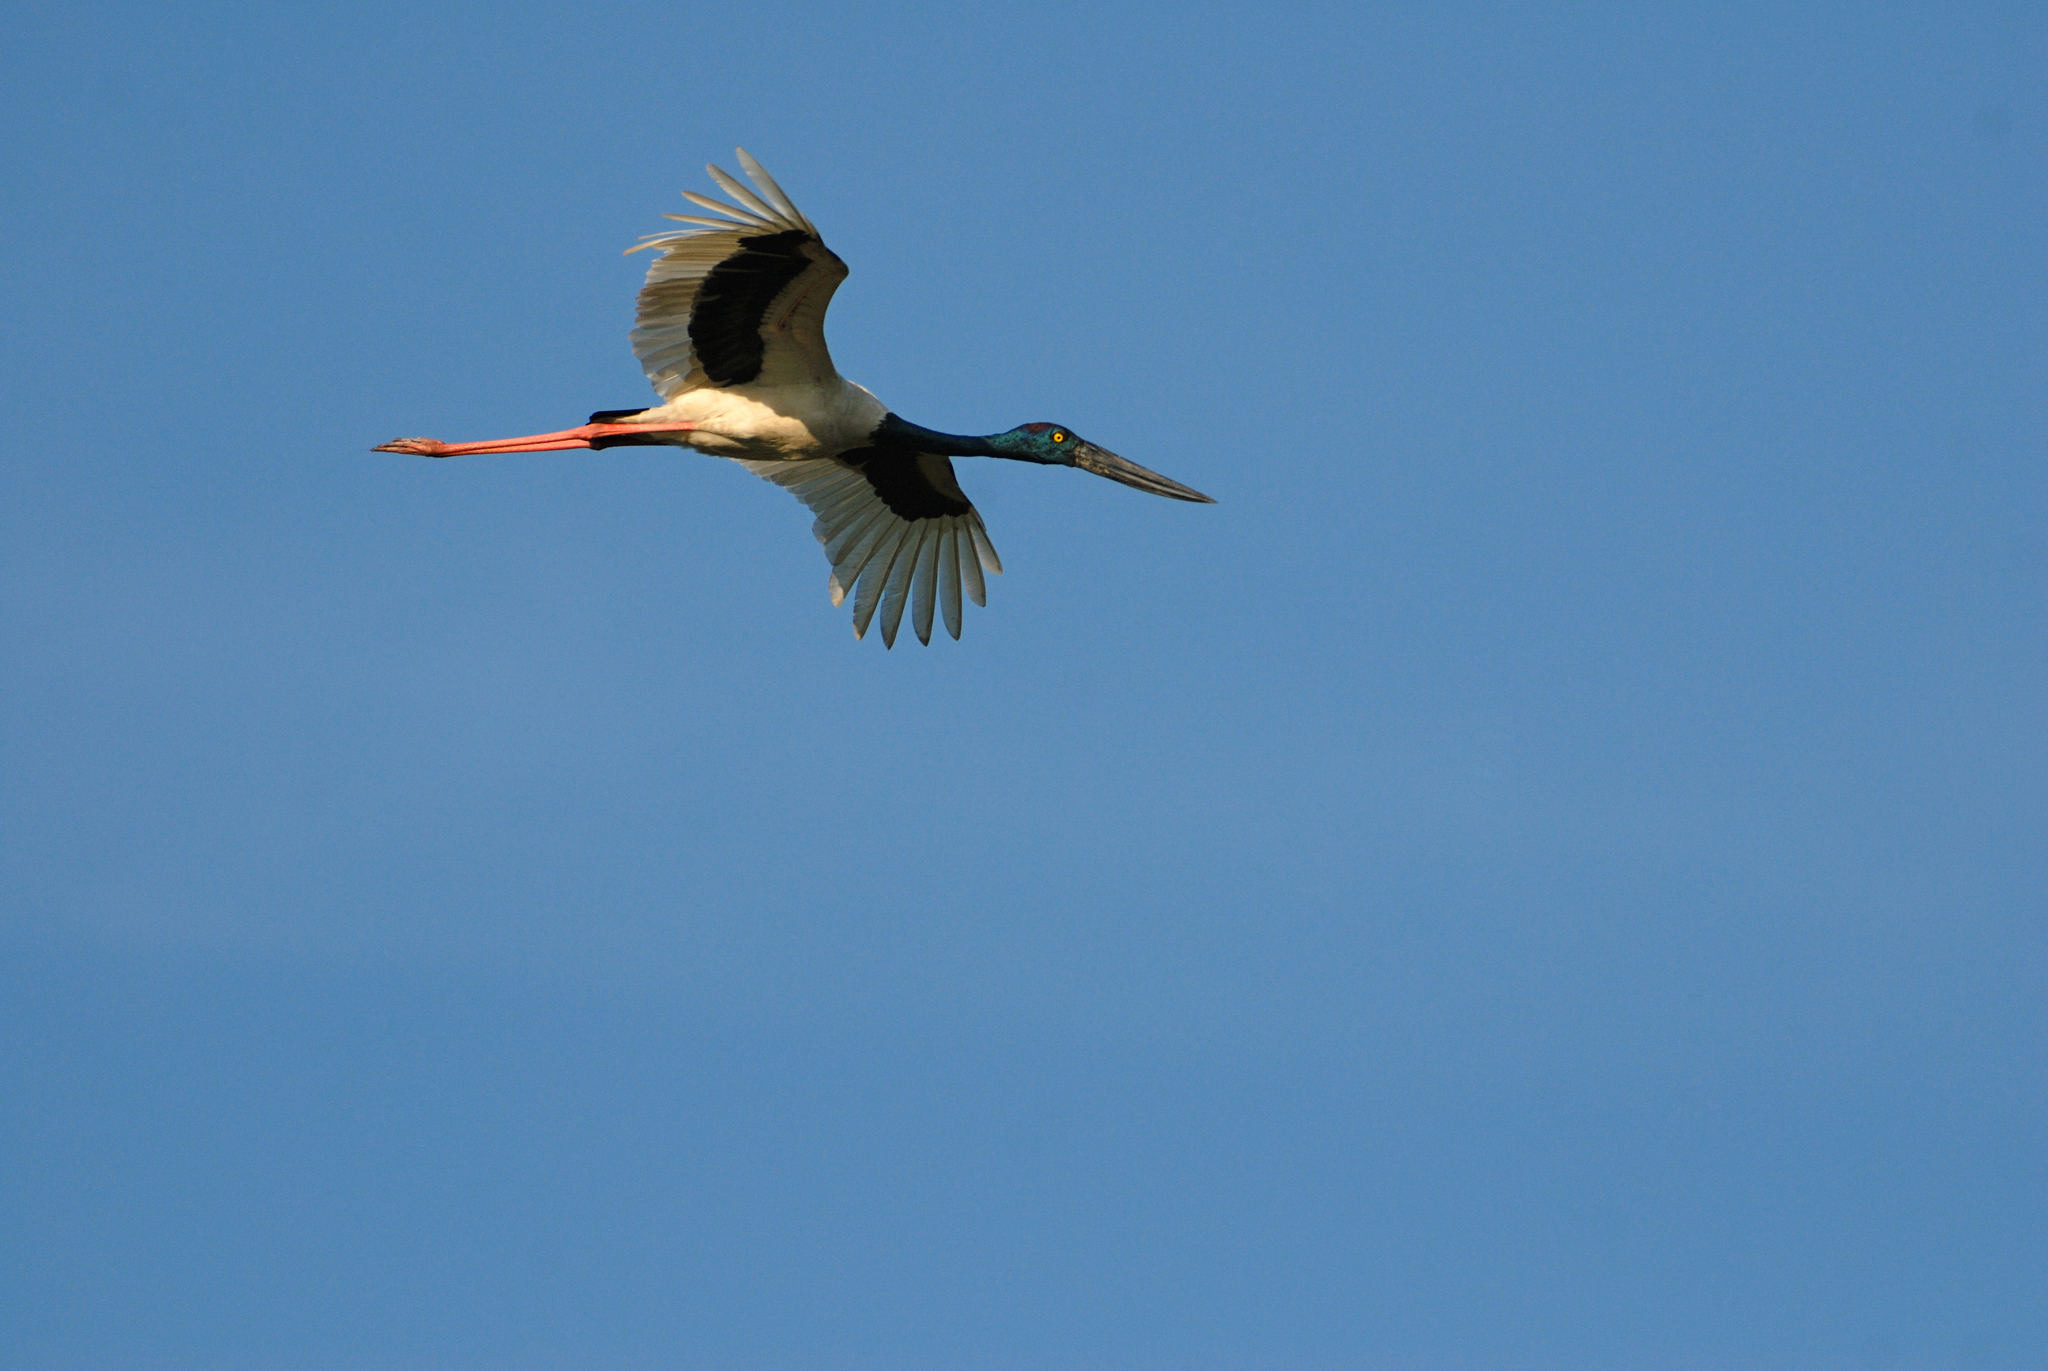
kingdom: Animalia
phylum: Chordata
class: Aves
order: Ciconiiformes
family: Ciconiidae
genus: Ephippiorhynchus
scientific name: Ephippiorhynchus asiaticus
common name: Black-necked stork
